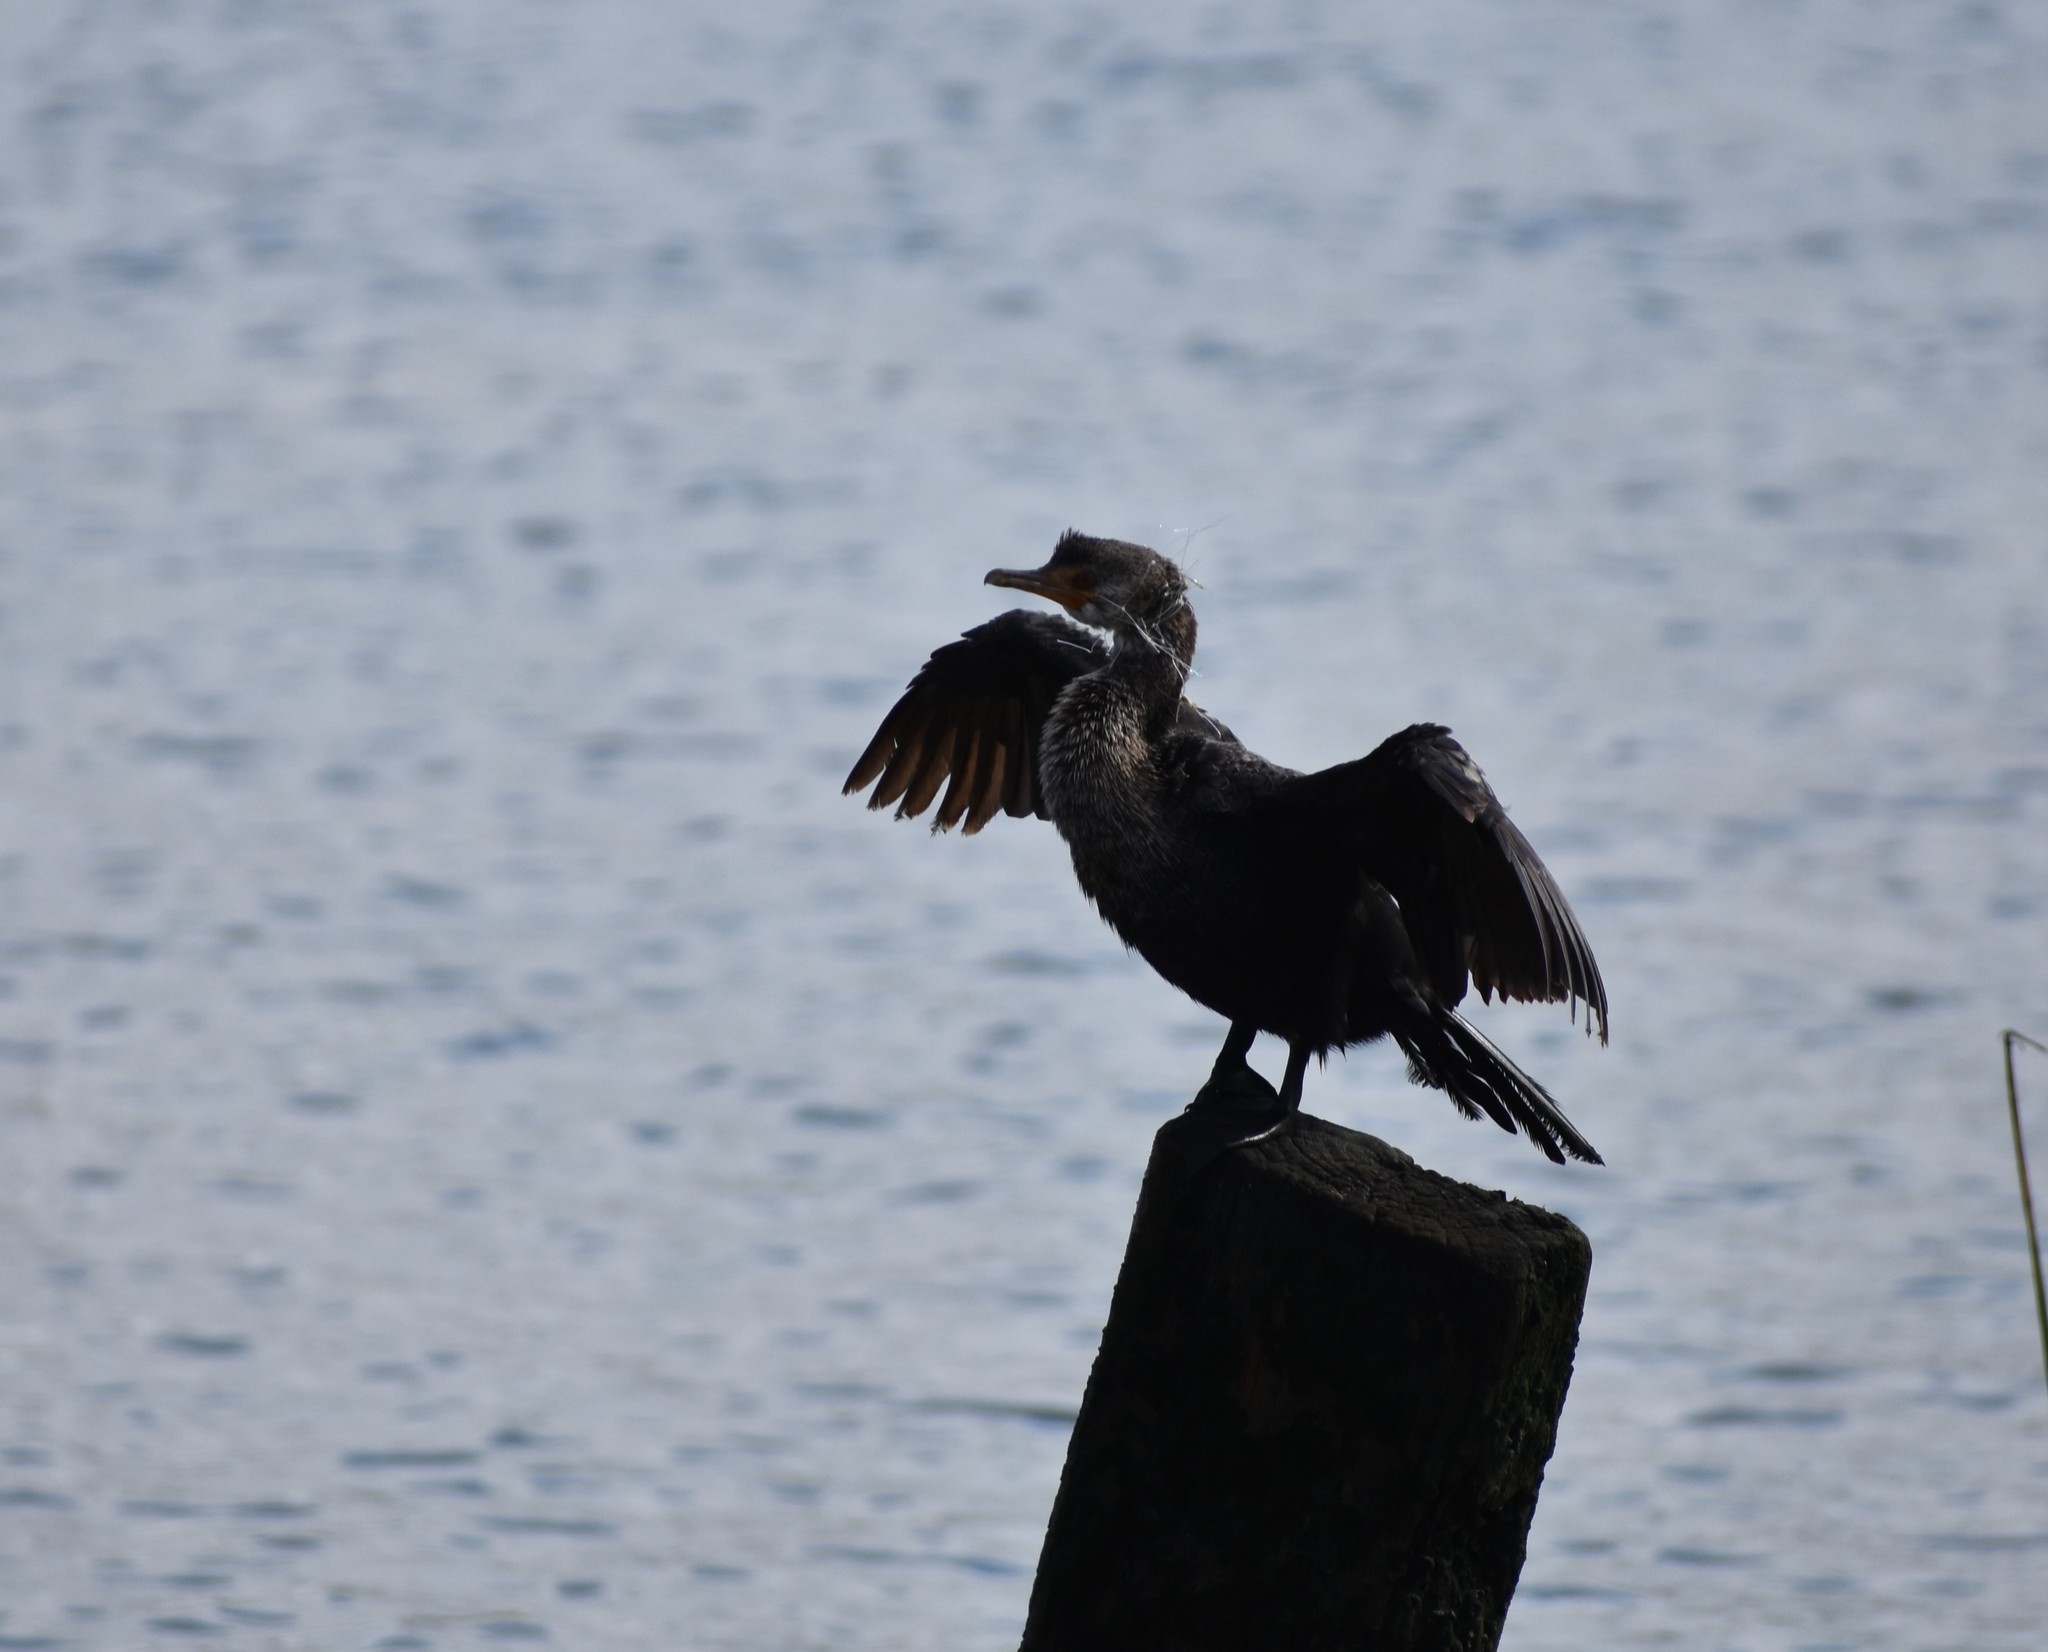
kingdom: Animalia
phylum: Chordata
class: Aves
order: Suliformes
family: Phalacrocoracidae
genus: Microcarbo
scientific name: Microcarbo africanus
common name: Long-tailed cormorant
